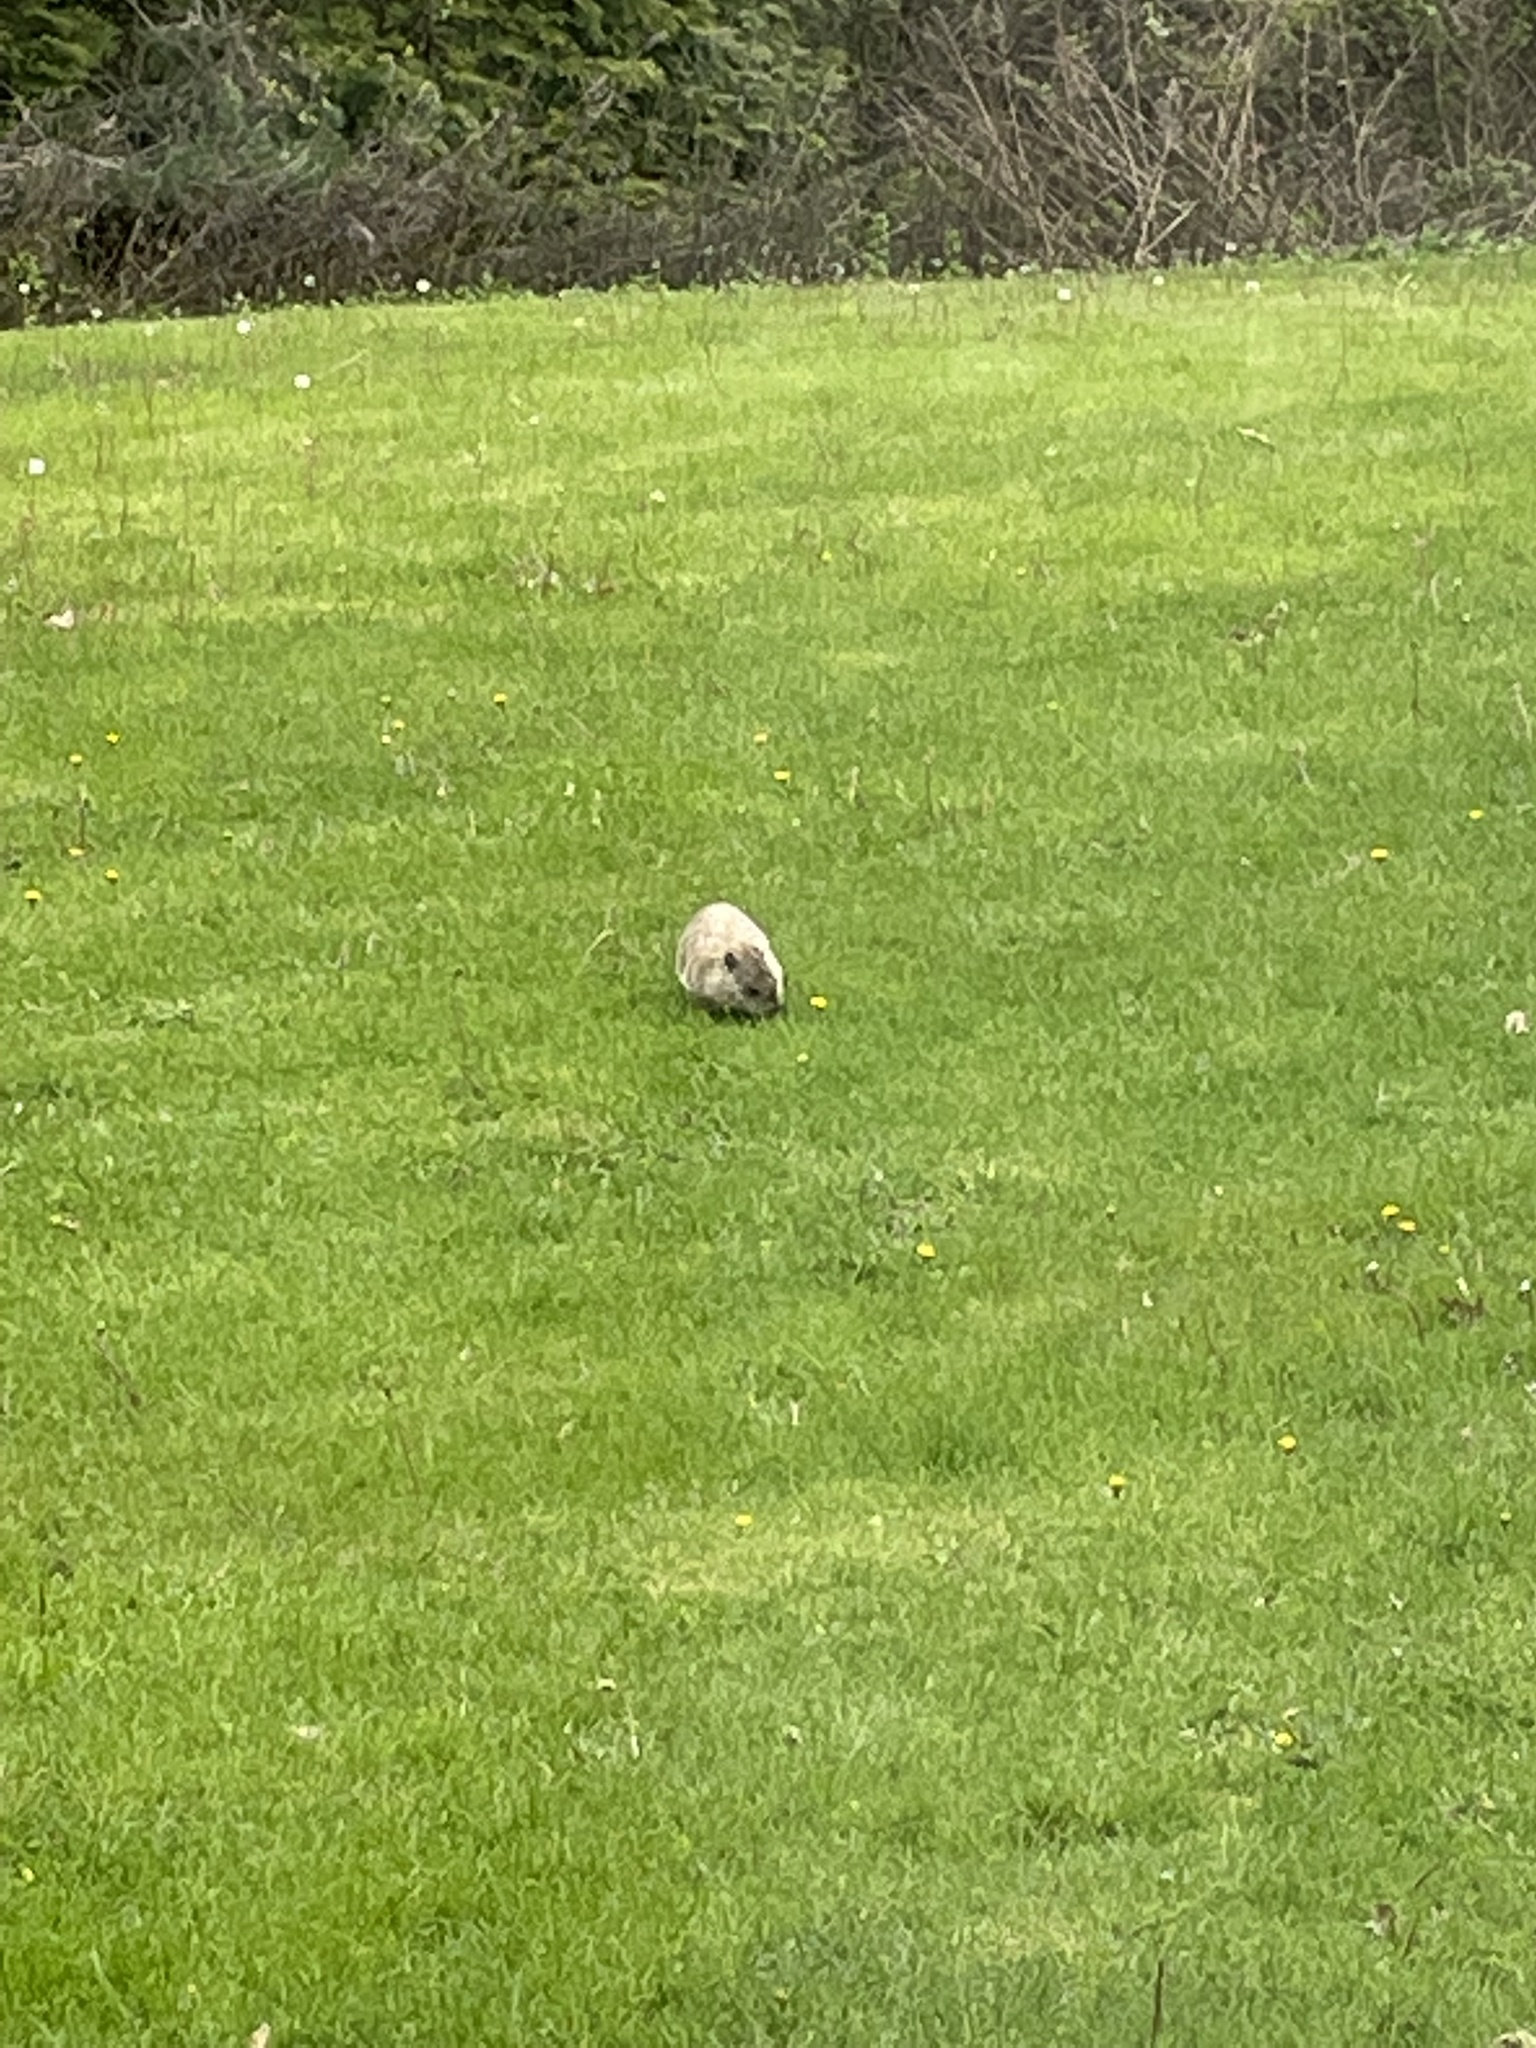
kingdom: Animalia
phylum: Chordata
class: Mammalia
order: Rodentia
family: Sciuridae
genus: Marmota
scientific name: Marmota monax
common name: Groundhog
